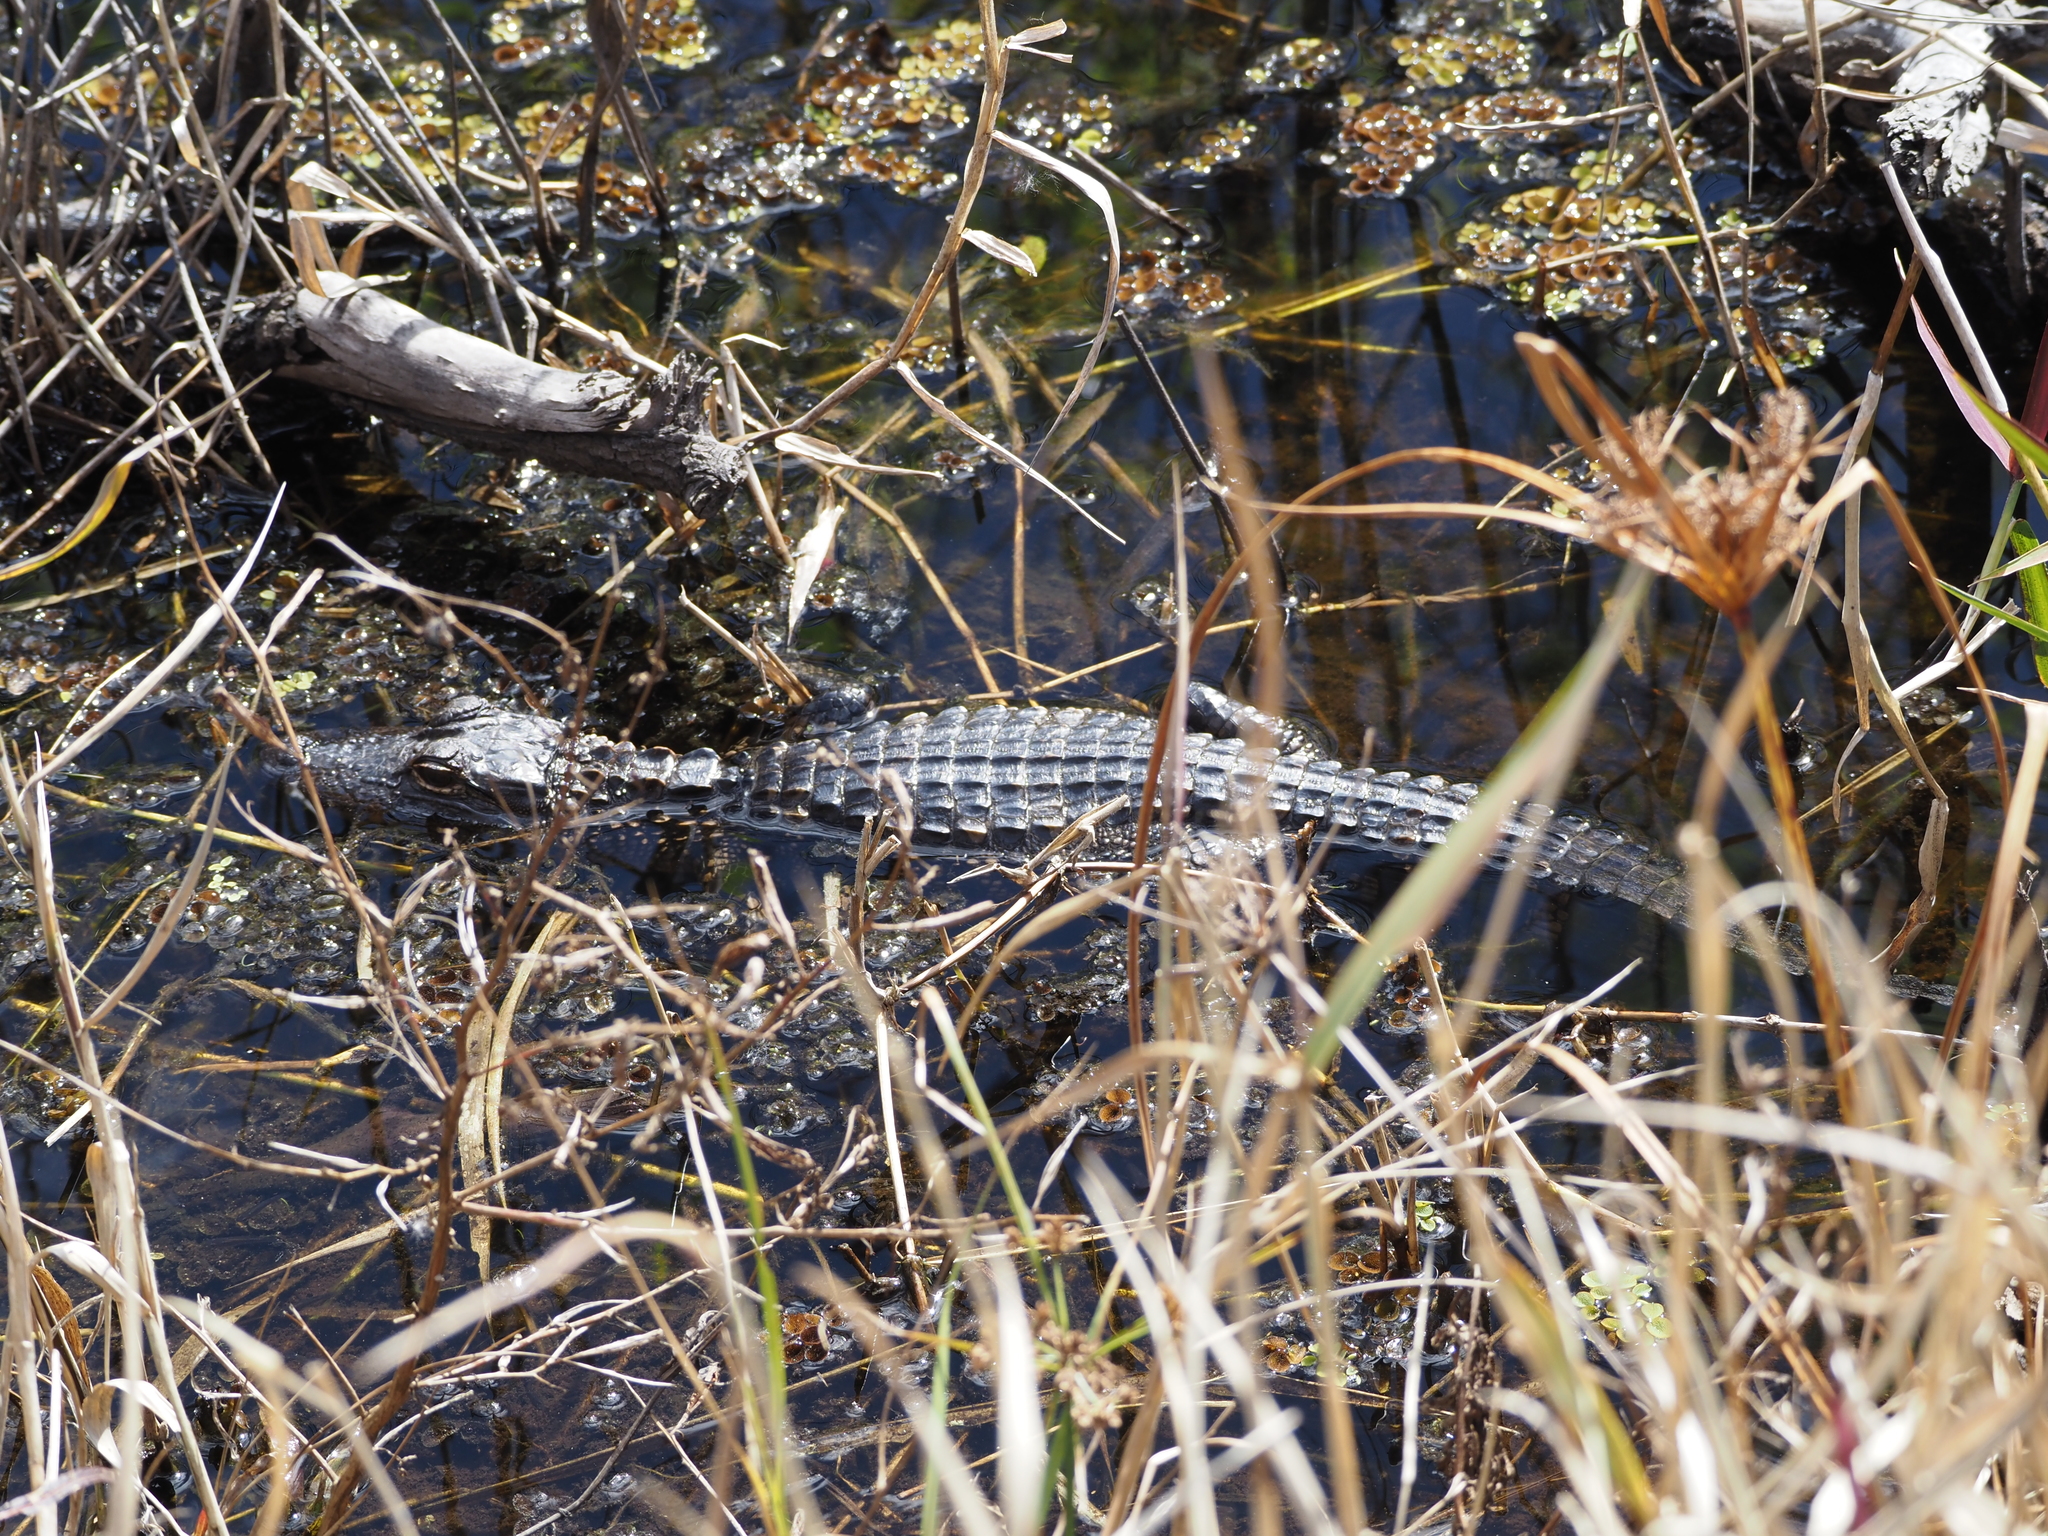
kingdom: Animalia
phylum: Chordata
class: Crocodylia
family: Alligatoridae
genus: Alligator
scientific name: Alligator mississippiensis
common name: American alligator
